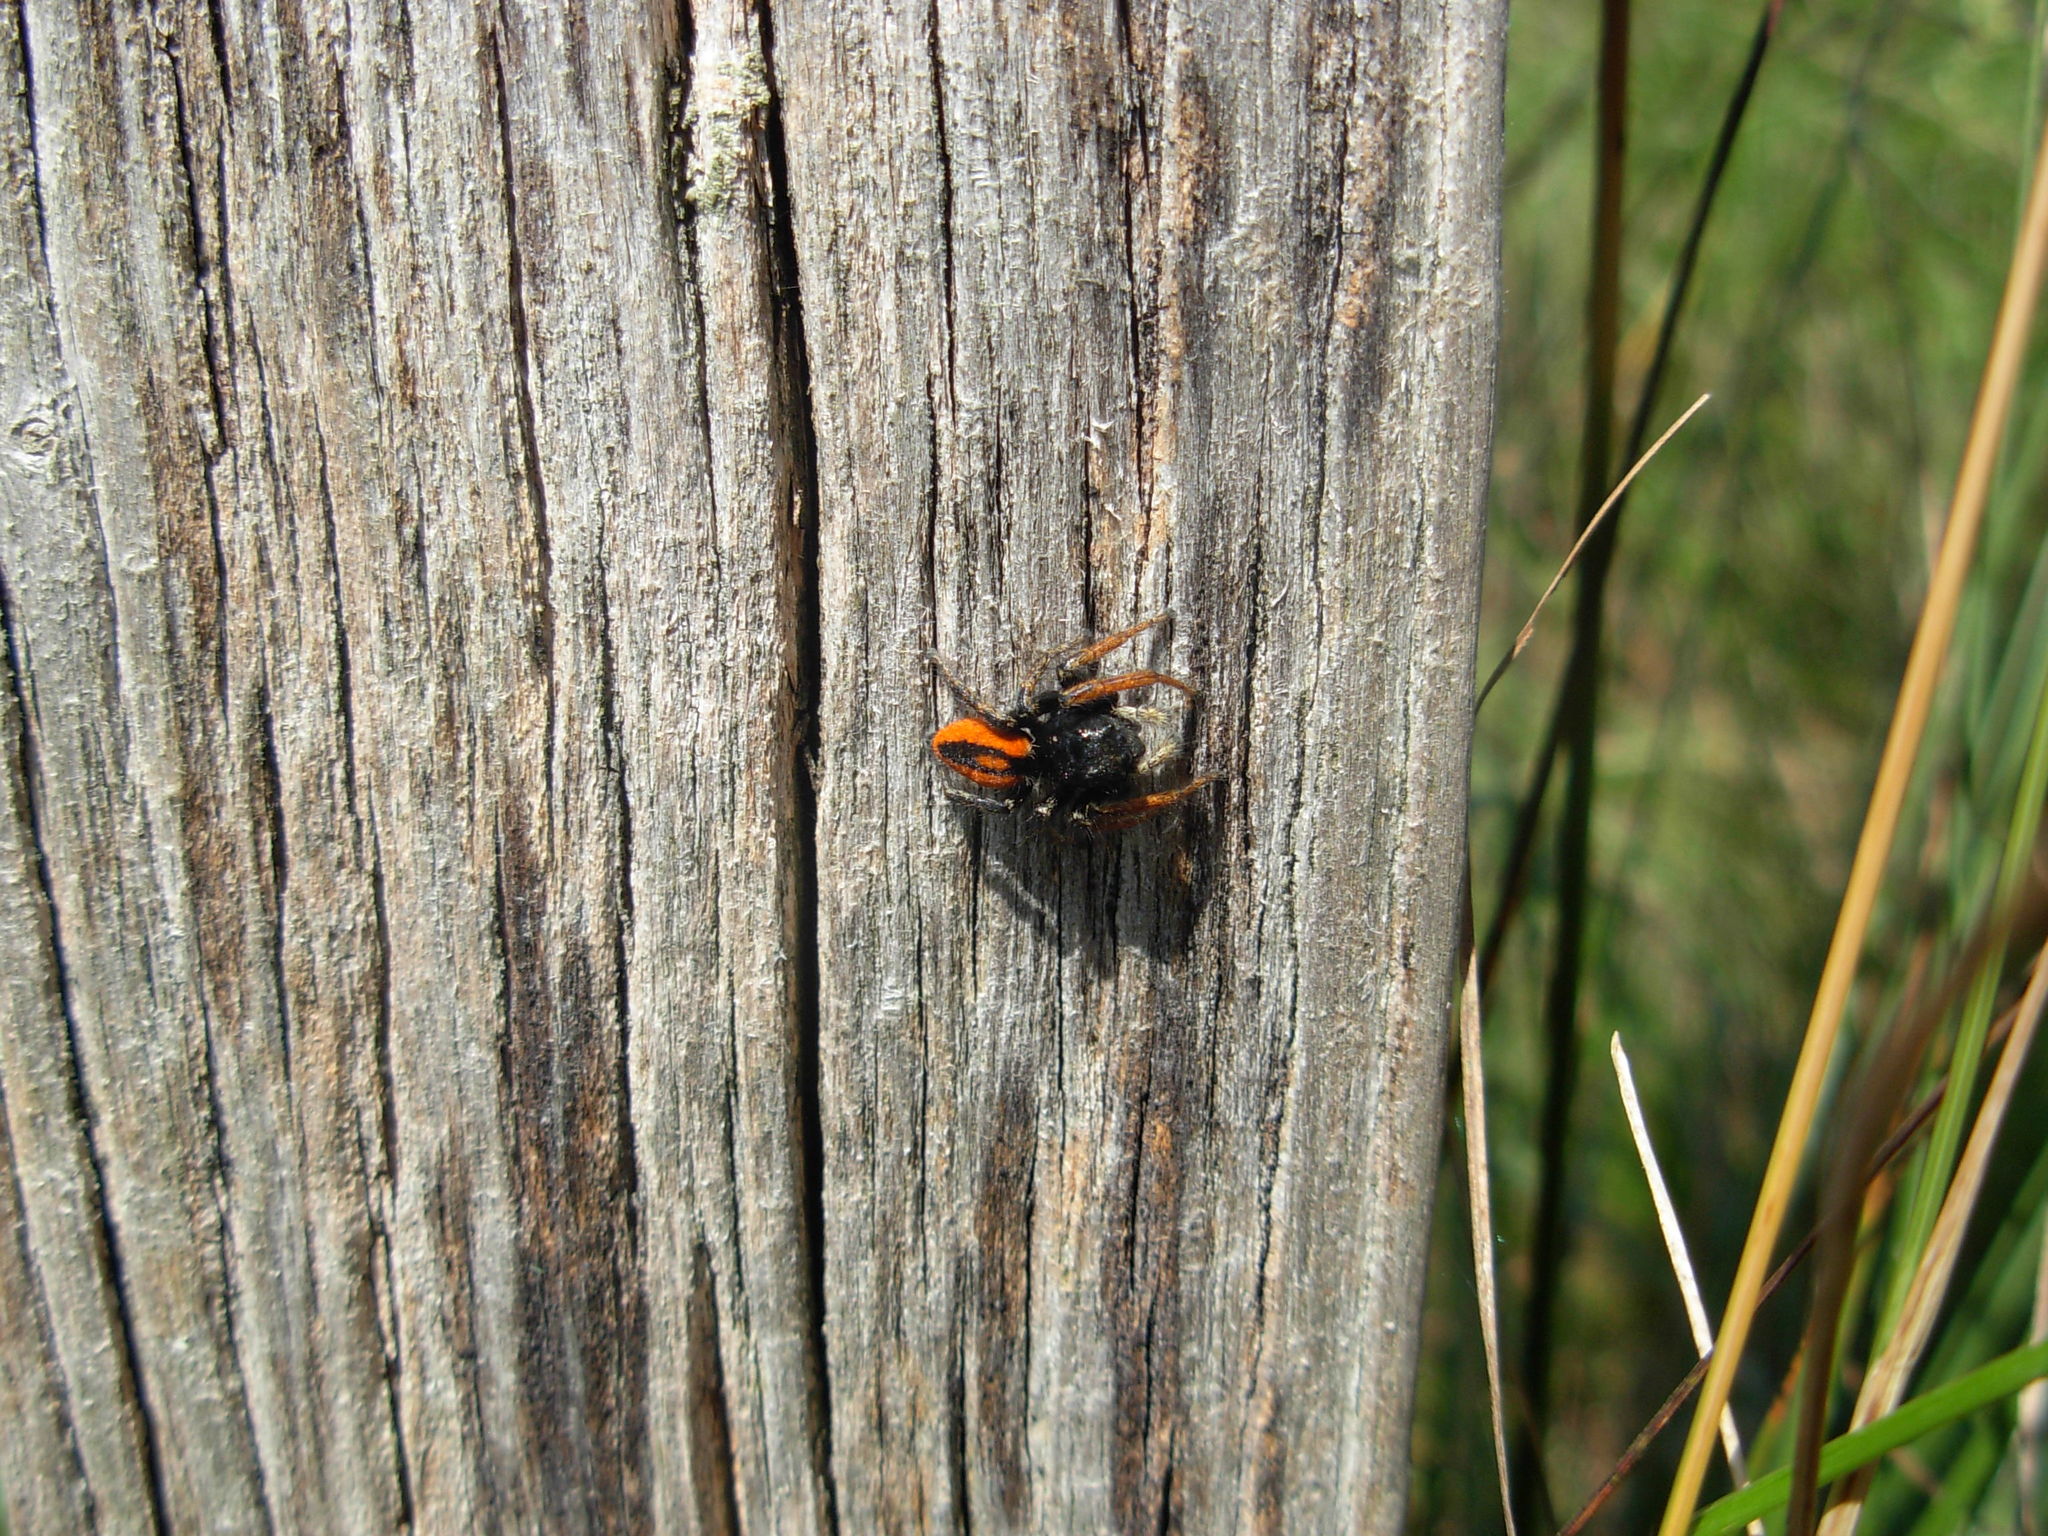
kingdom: Animalia
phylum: Arthropoda
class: Arachnida
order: Araneae
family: Salticidae
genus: Philaeus
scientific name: Philaeus chrysops
